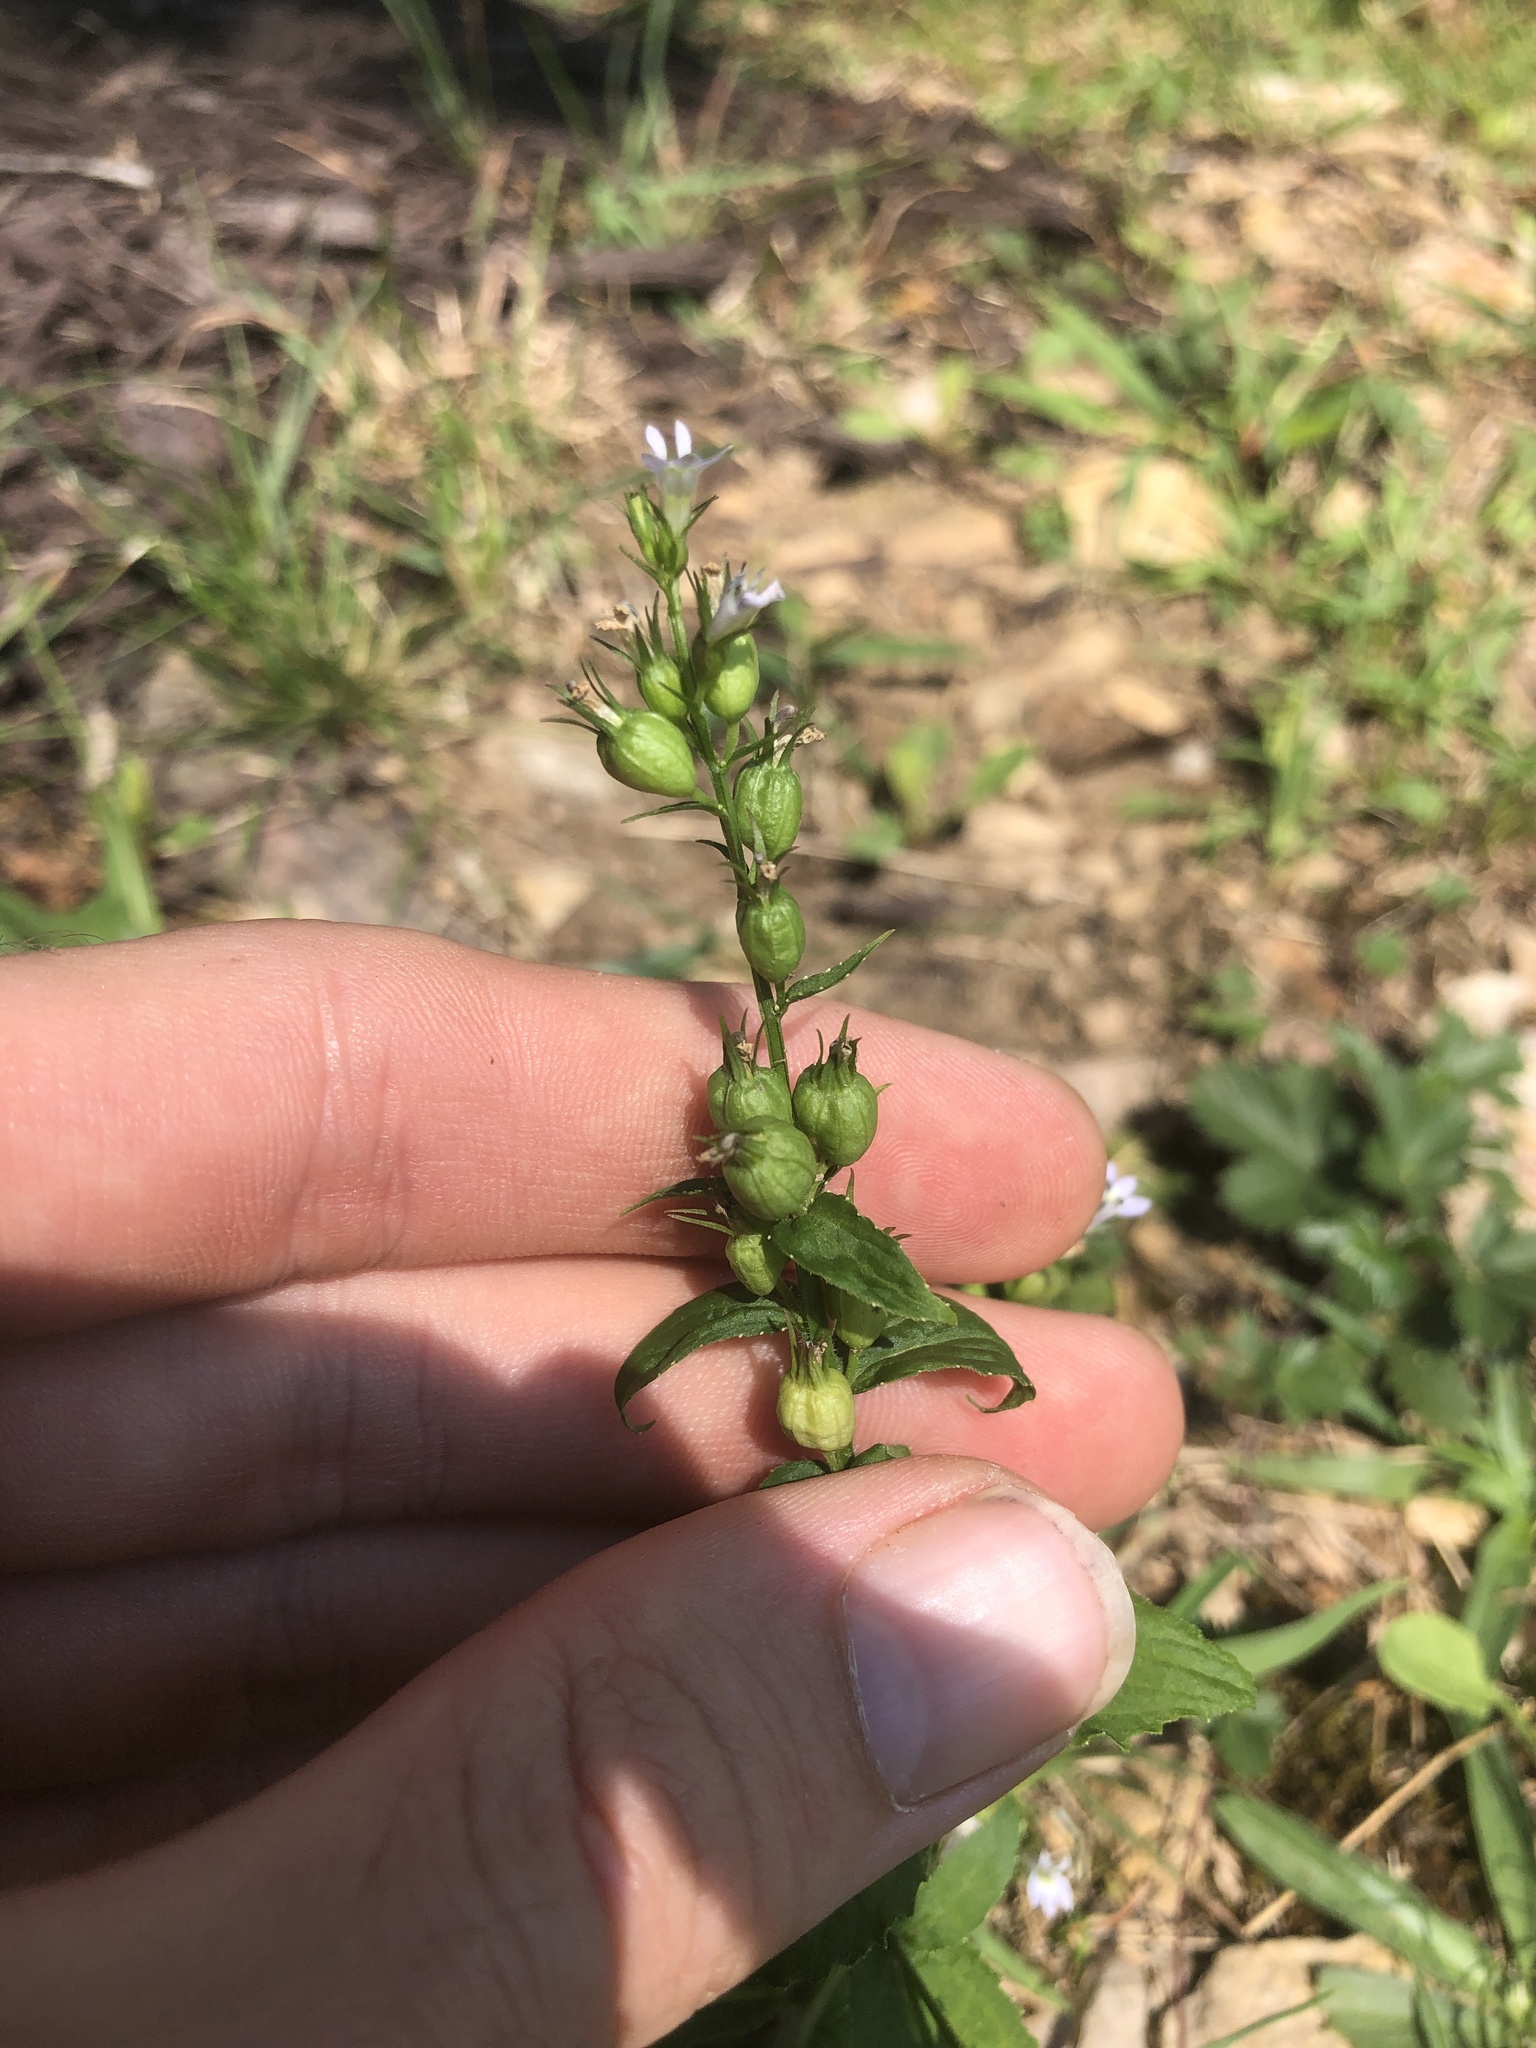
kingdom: Plantae
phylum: Tracheophyta
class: Magnoliopsida
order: Asterales
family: Campanulaceae
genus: Lobelia
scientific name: Lobelia inflata
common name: Indian tobacco
